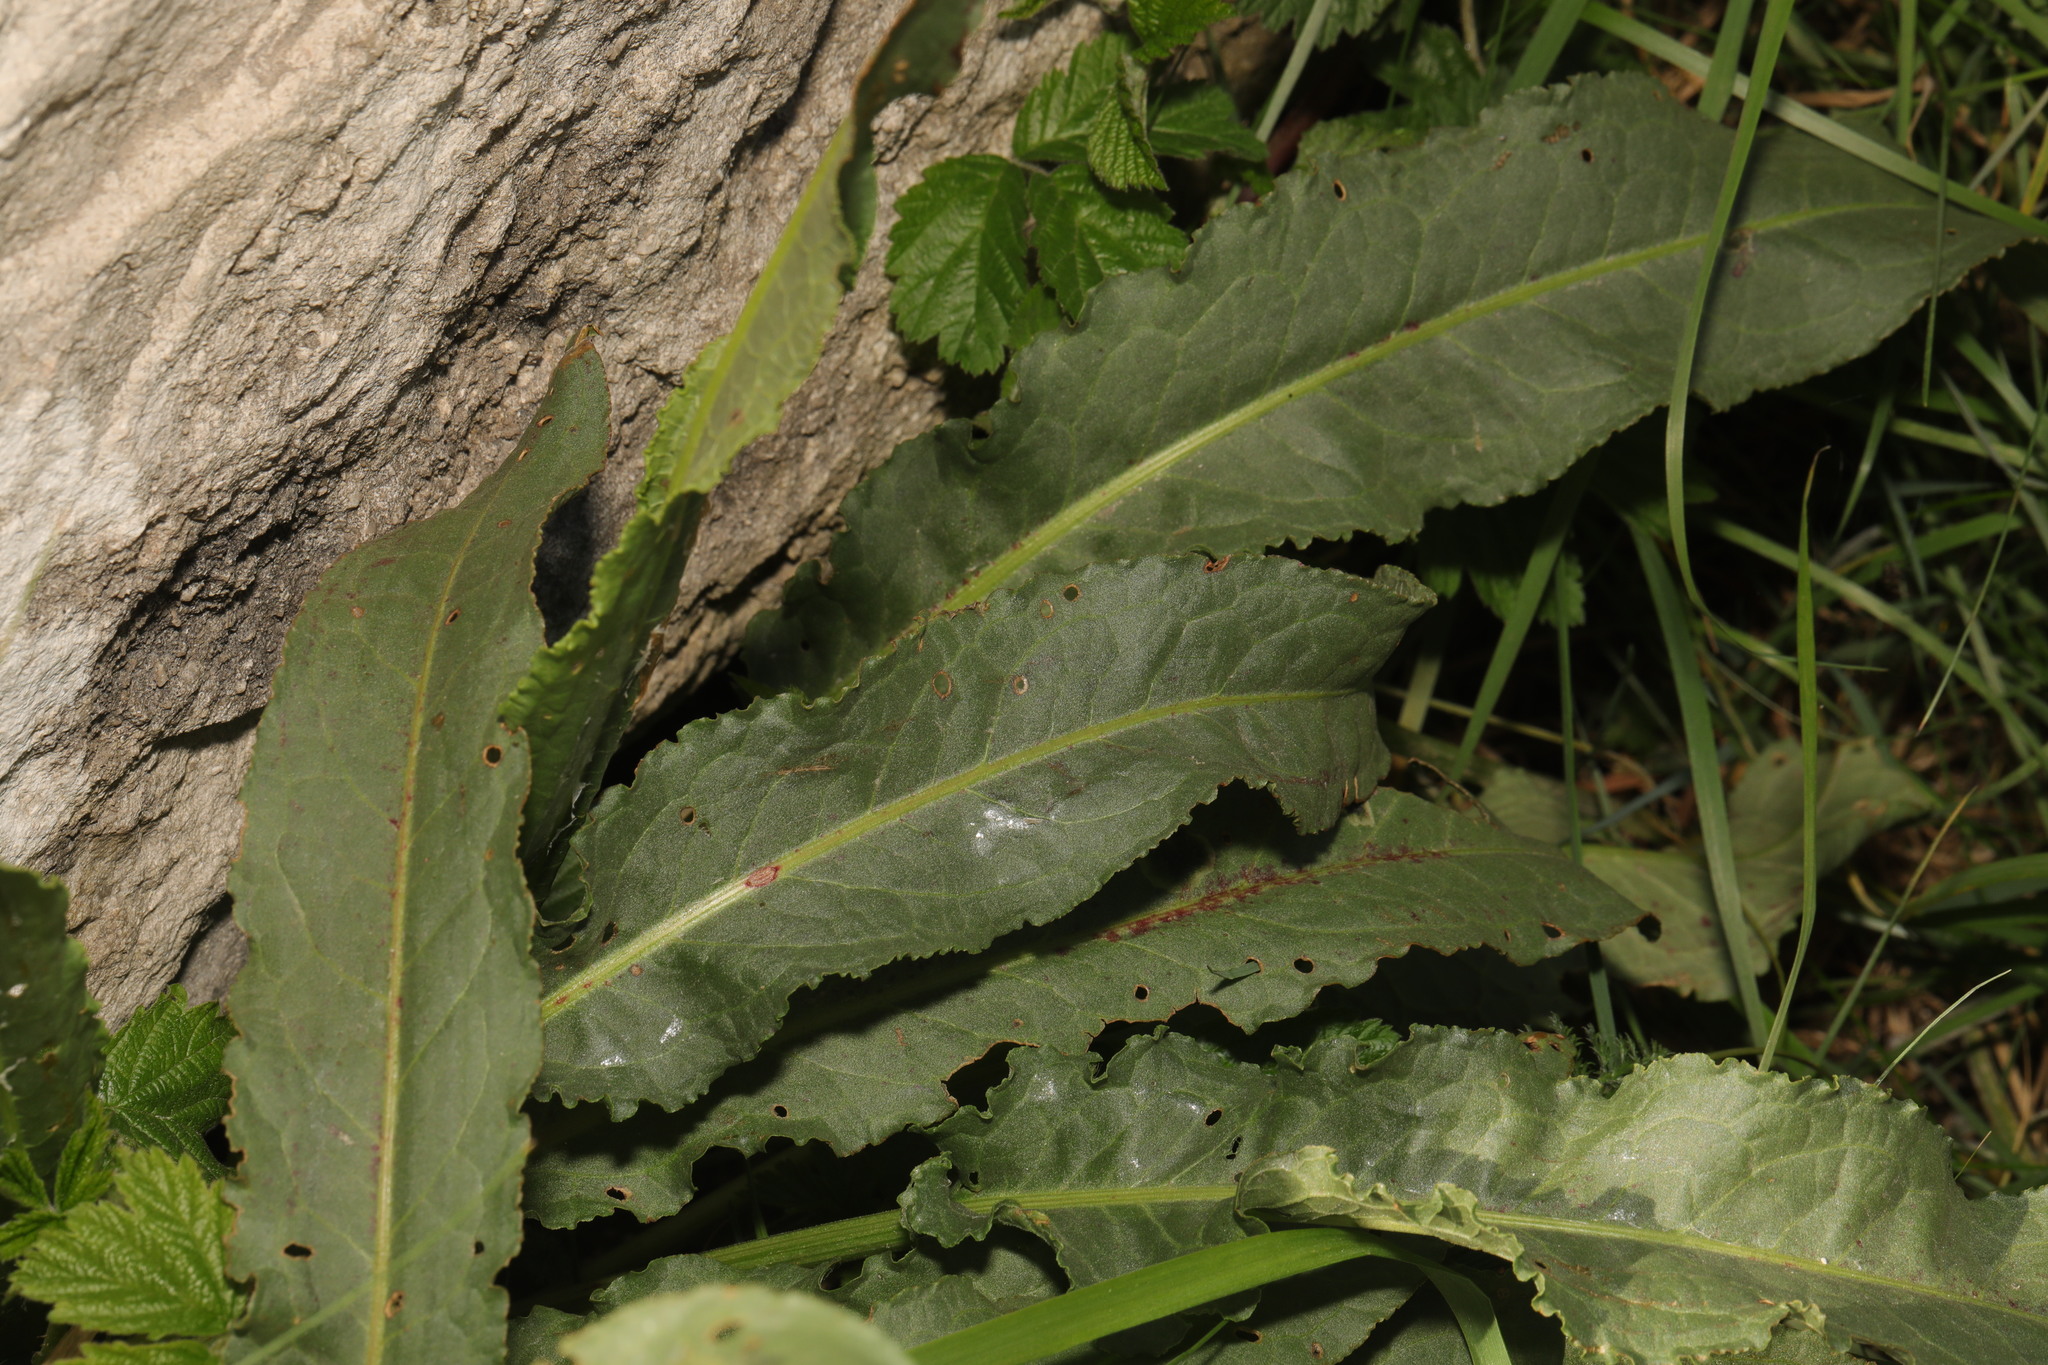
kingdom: Plantae
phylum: Tracheophyta
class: Magnoliopsida
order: Caryophyllales
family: Polygonaceae
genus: Rumex
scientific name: Rumex crispus
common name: Curled dock
